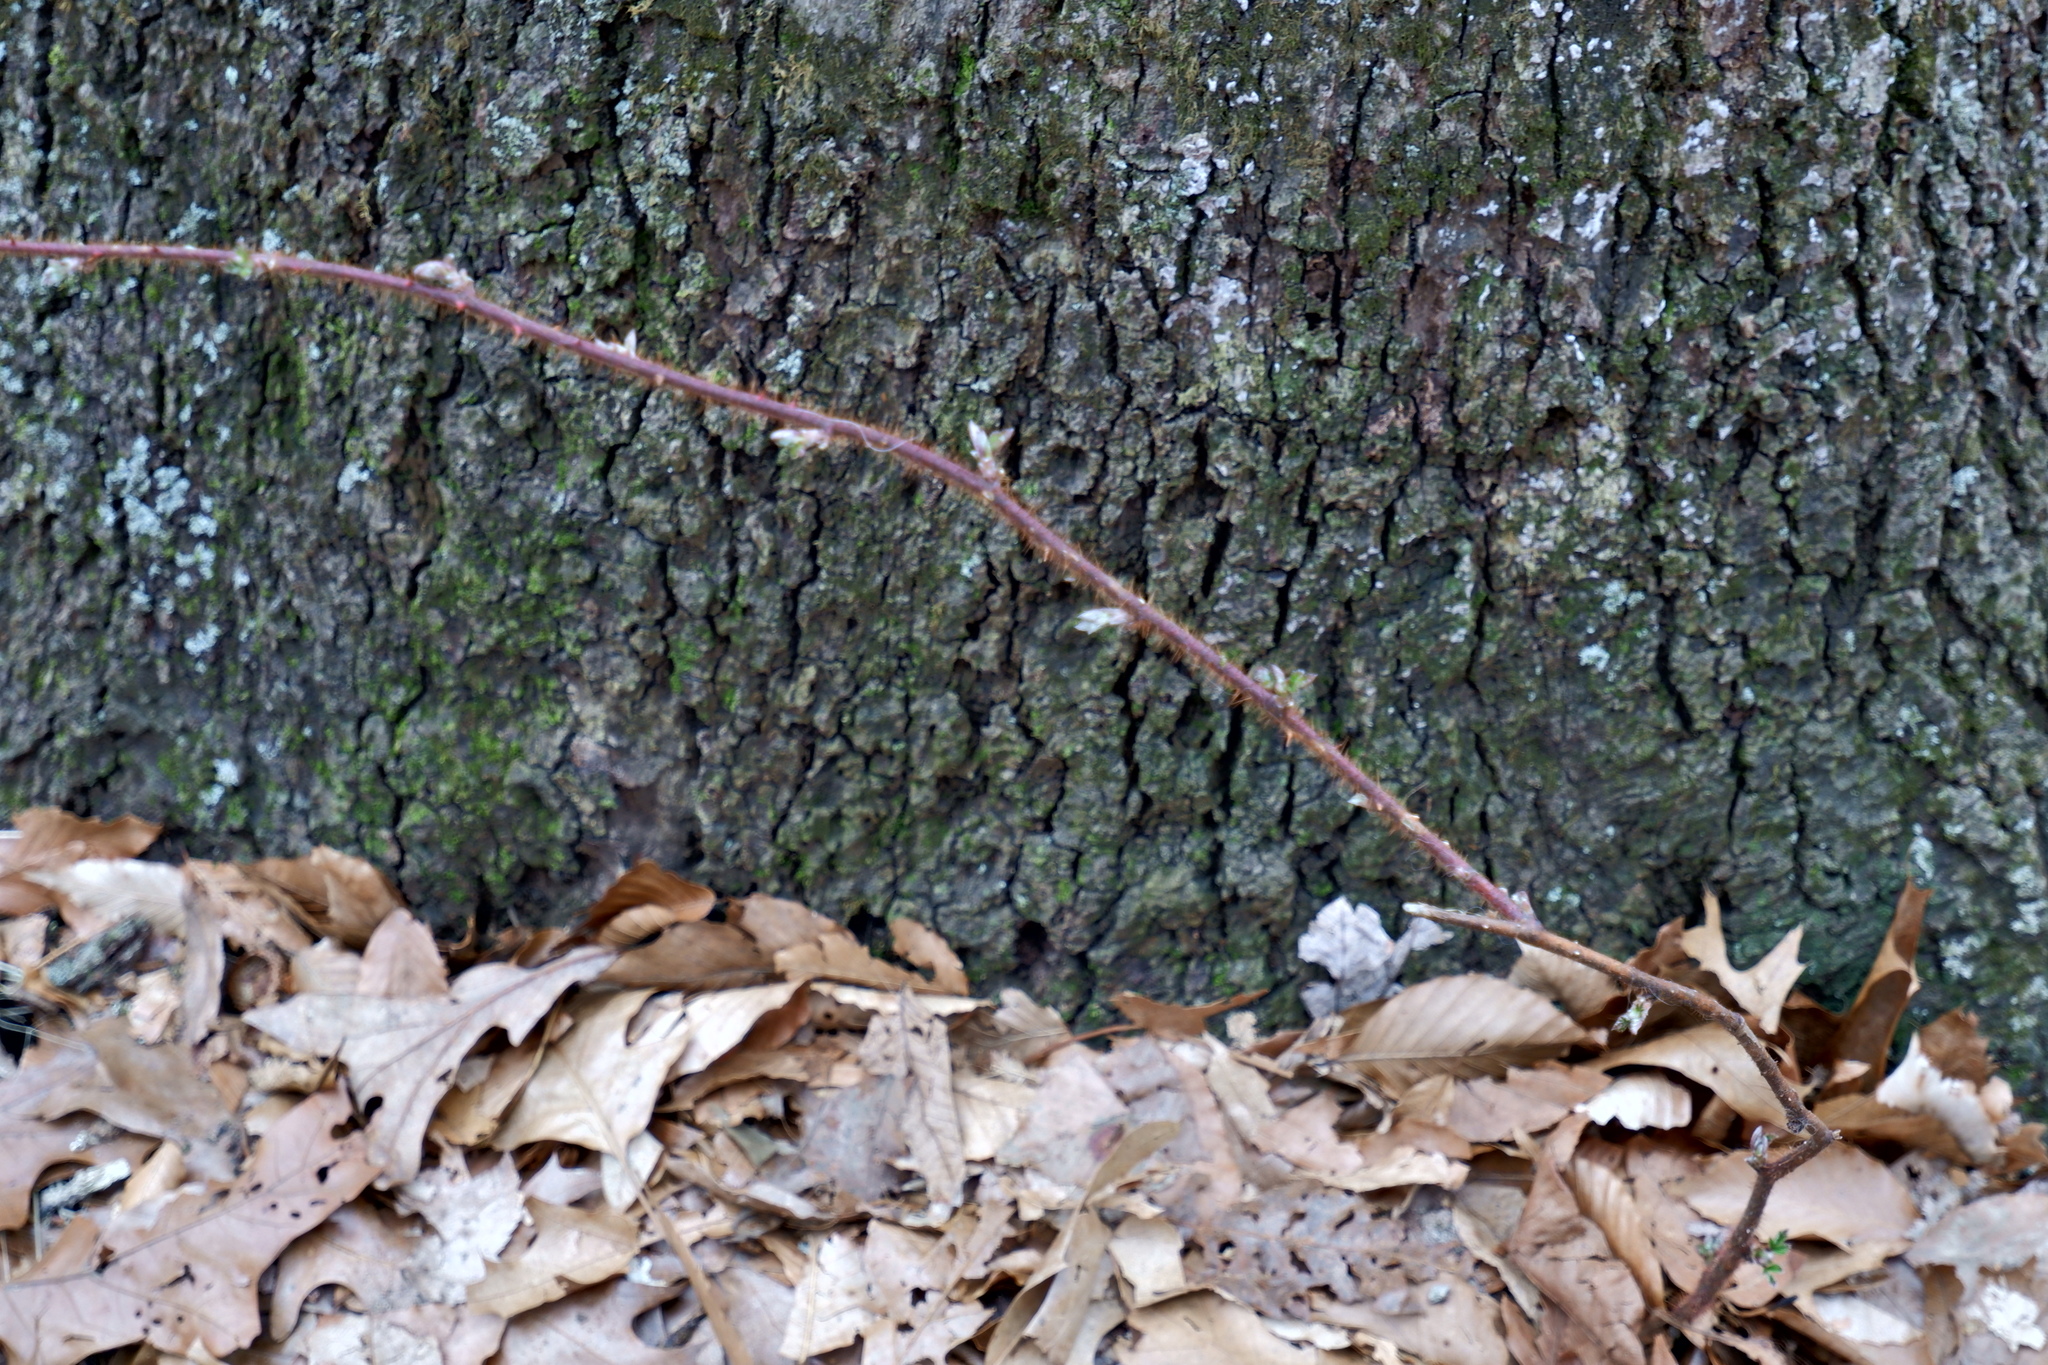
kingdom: Plantae
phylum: Tracheophyta
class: Magnoliopsida
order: Rosales
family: Rosaceae
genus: Rubus
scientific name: Rubus phoenicolasius
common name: Japanese wineberry
